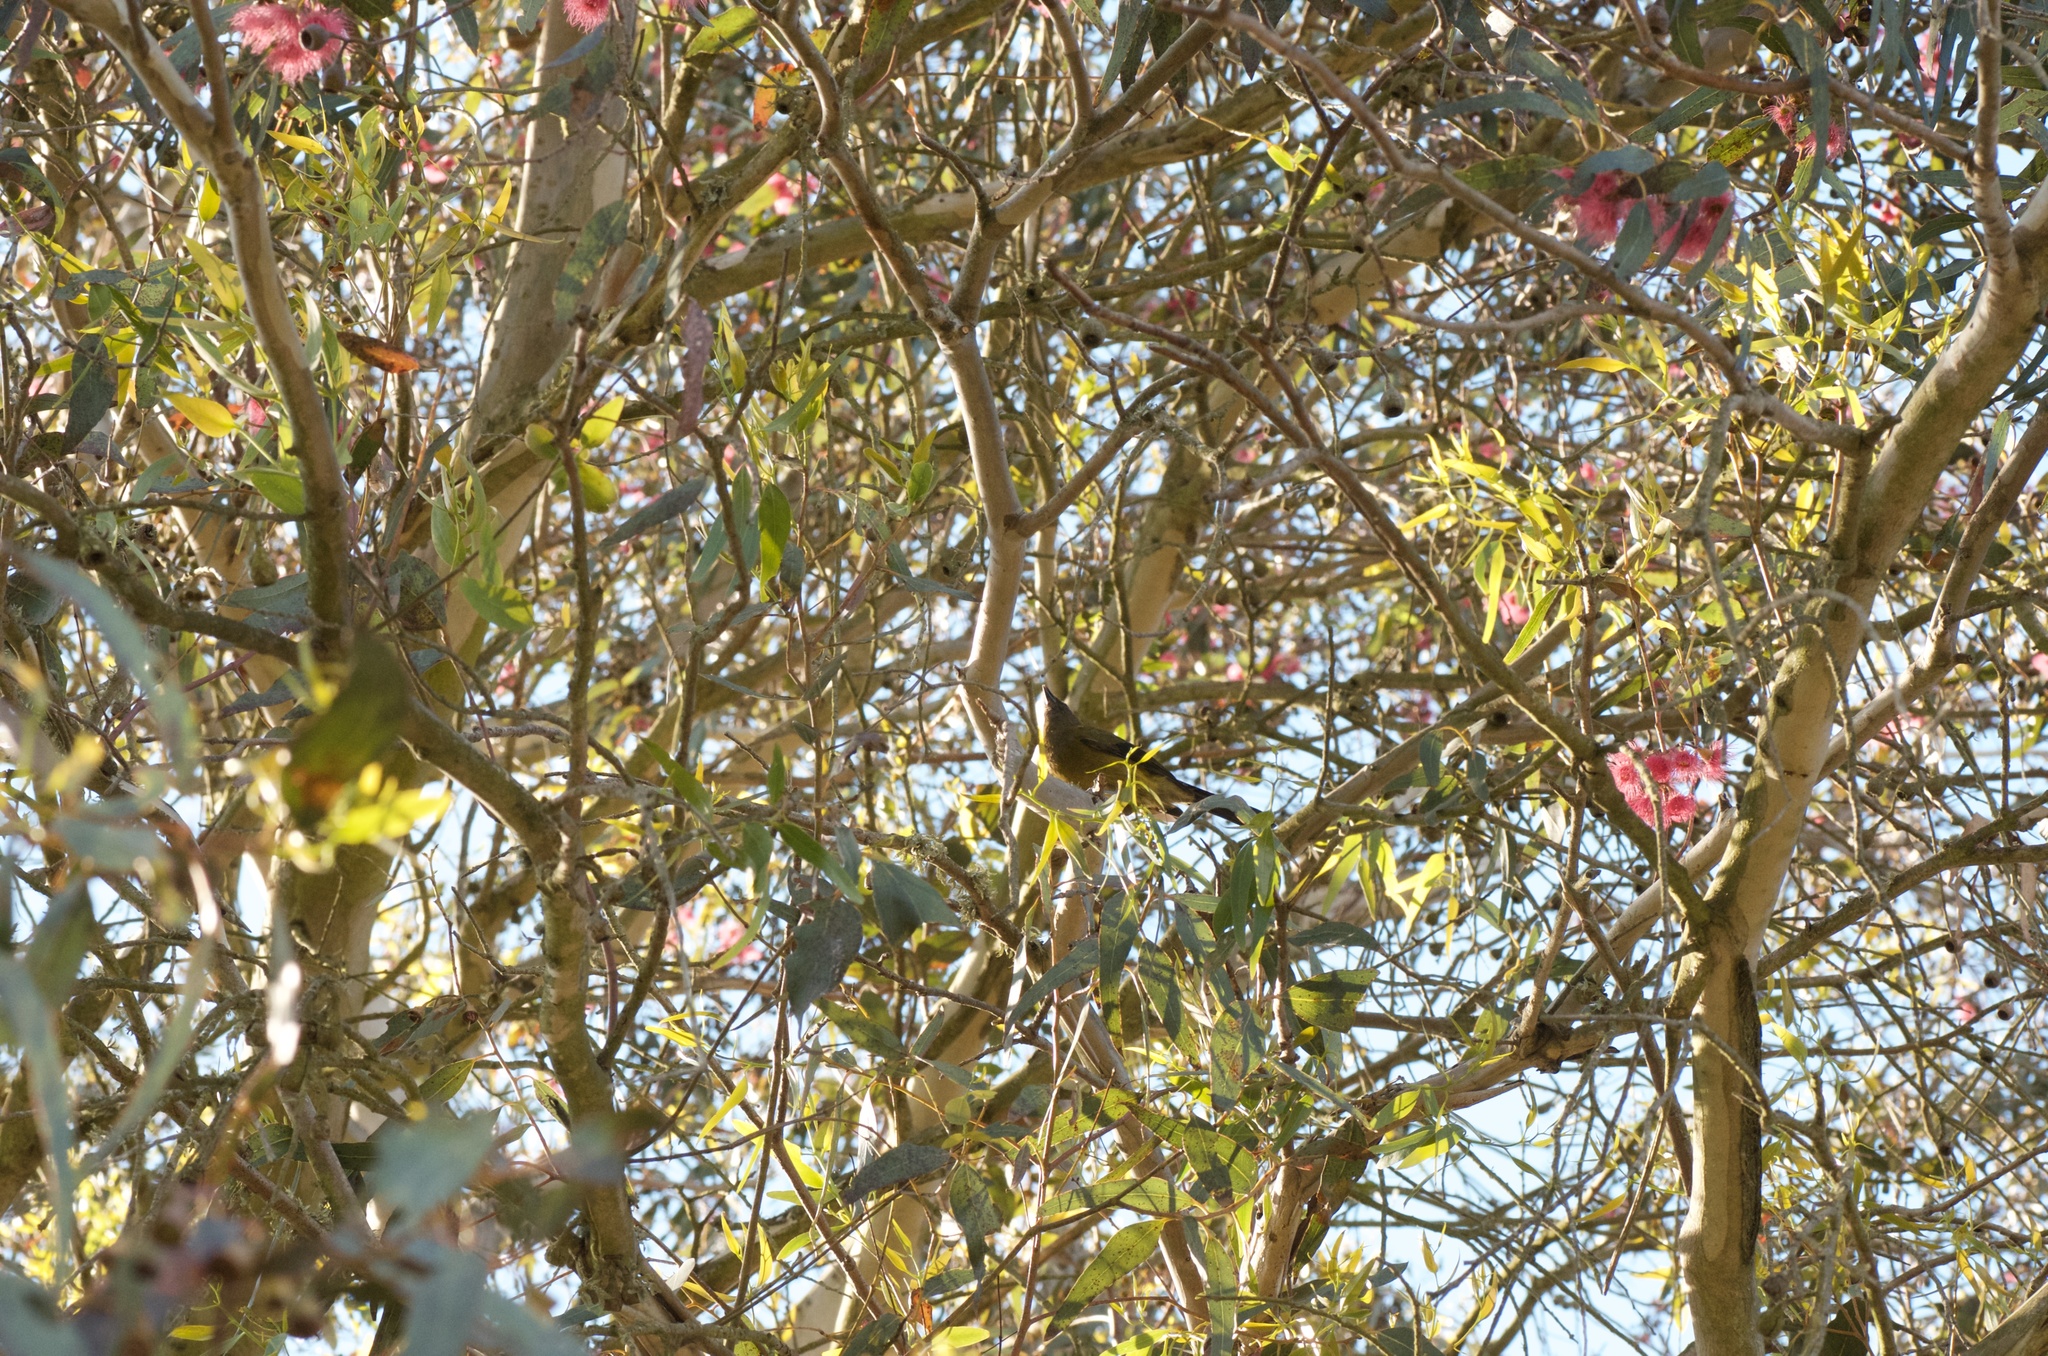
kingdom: Animalia
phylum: Chordata
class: Aves
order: Passeriformes
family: Meliphagidae
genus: Anthornis
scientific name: Anthornis melanura
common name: New zealand bellbird
